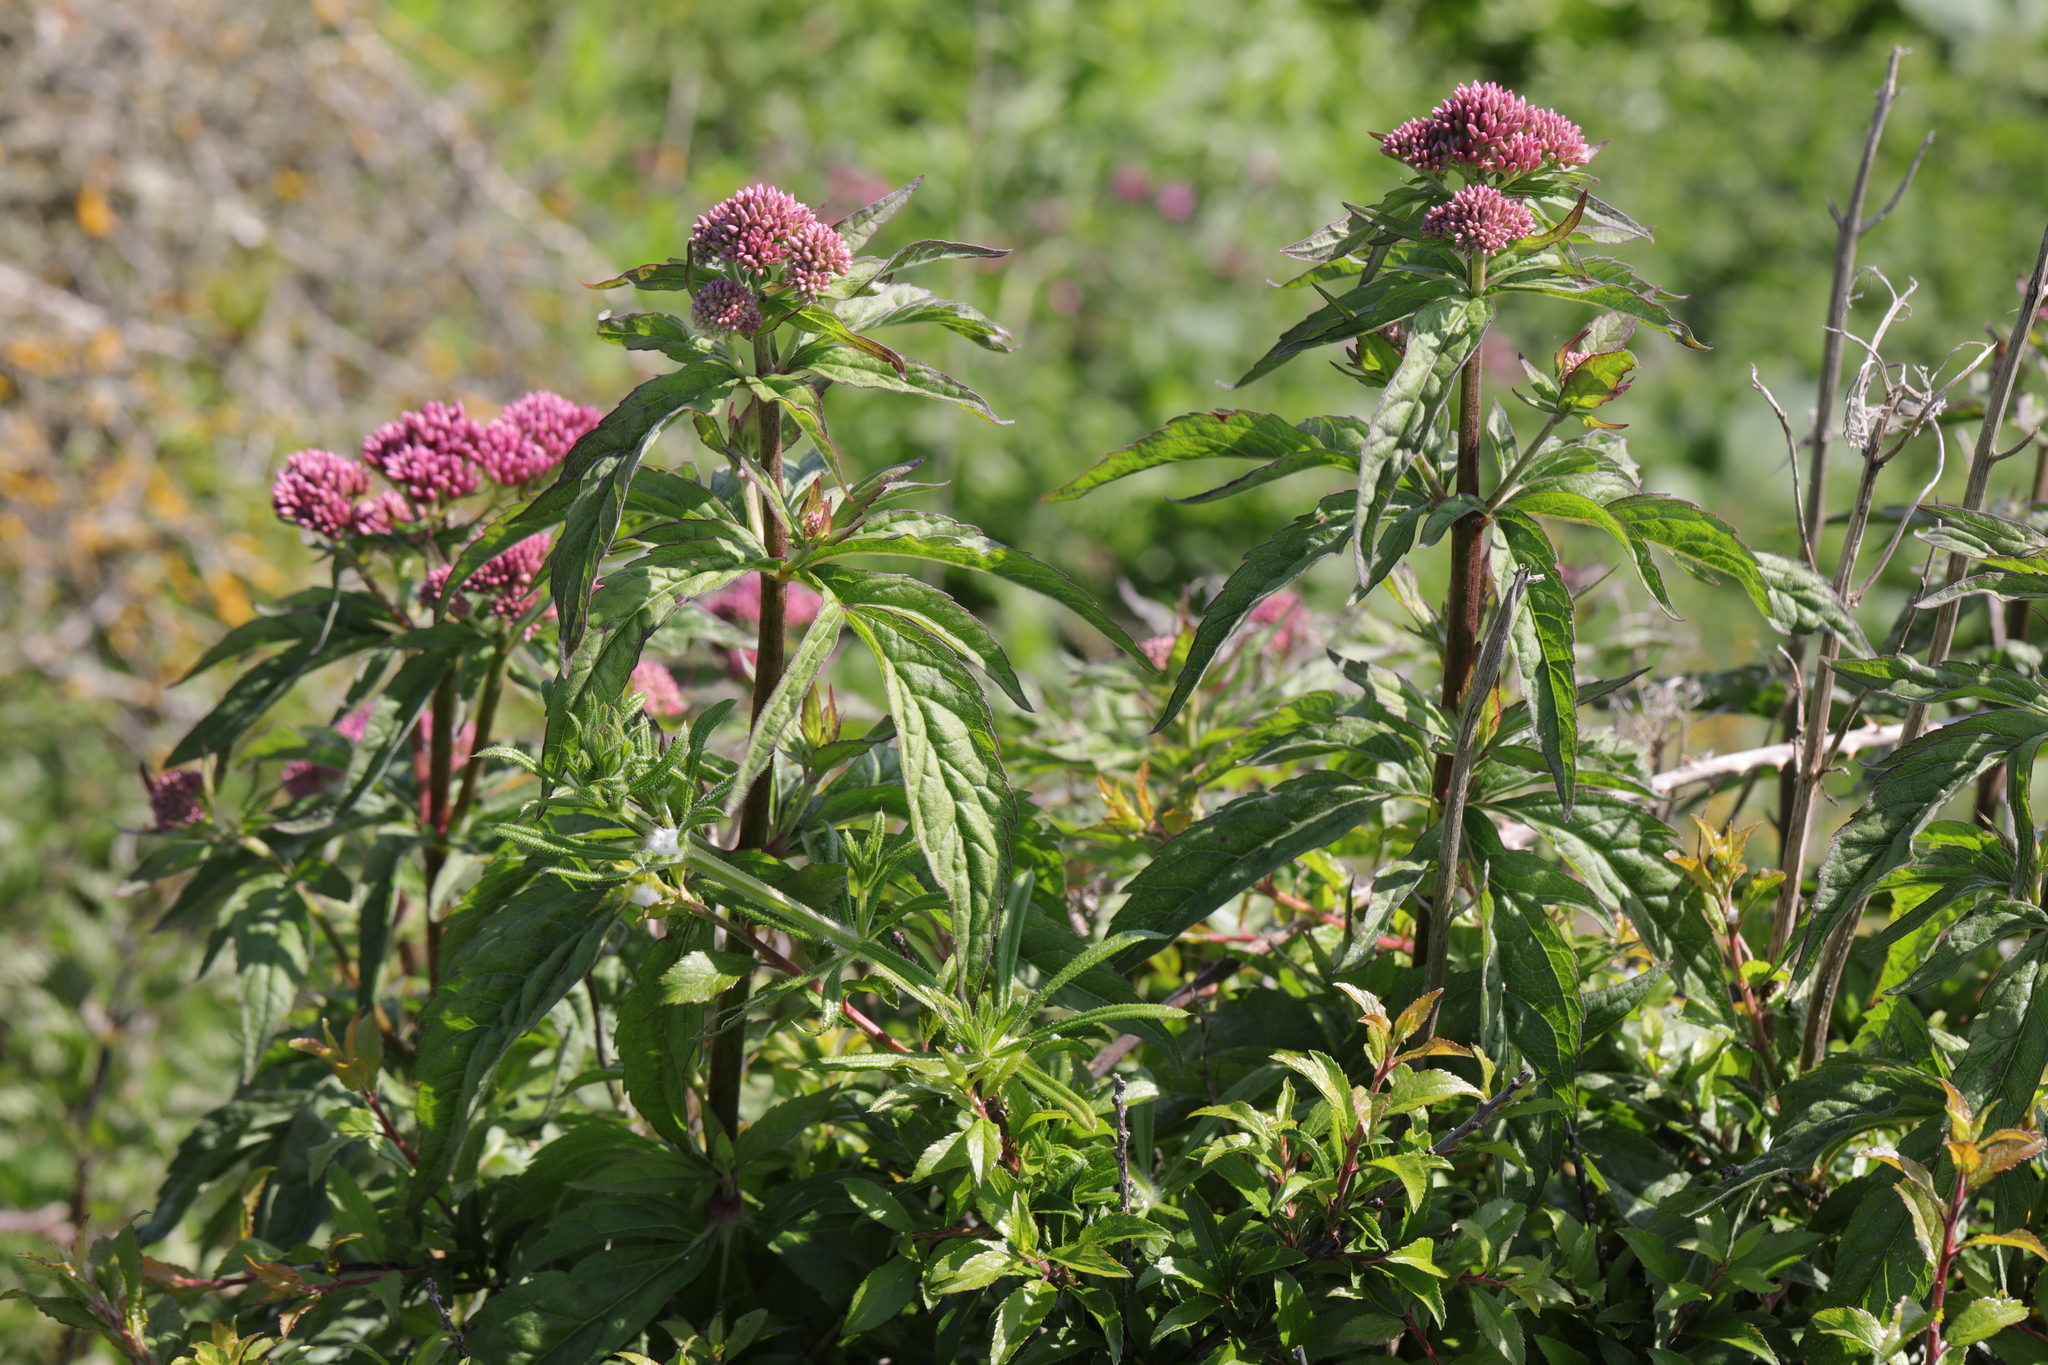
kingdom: Plantae
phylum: Tracheophyta
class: Magnoliopsida
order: Asterales
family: Asteraceae
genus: Eupatorium
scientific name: Eupatorium cannabinum
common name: Hemp-agrimony
